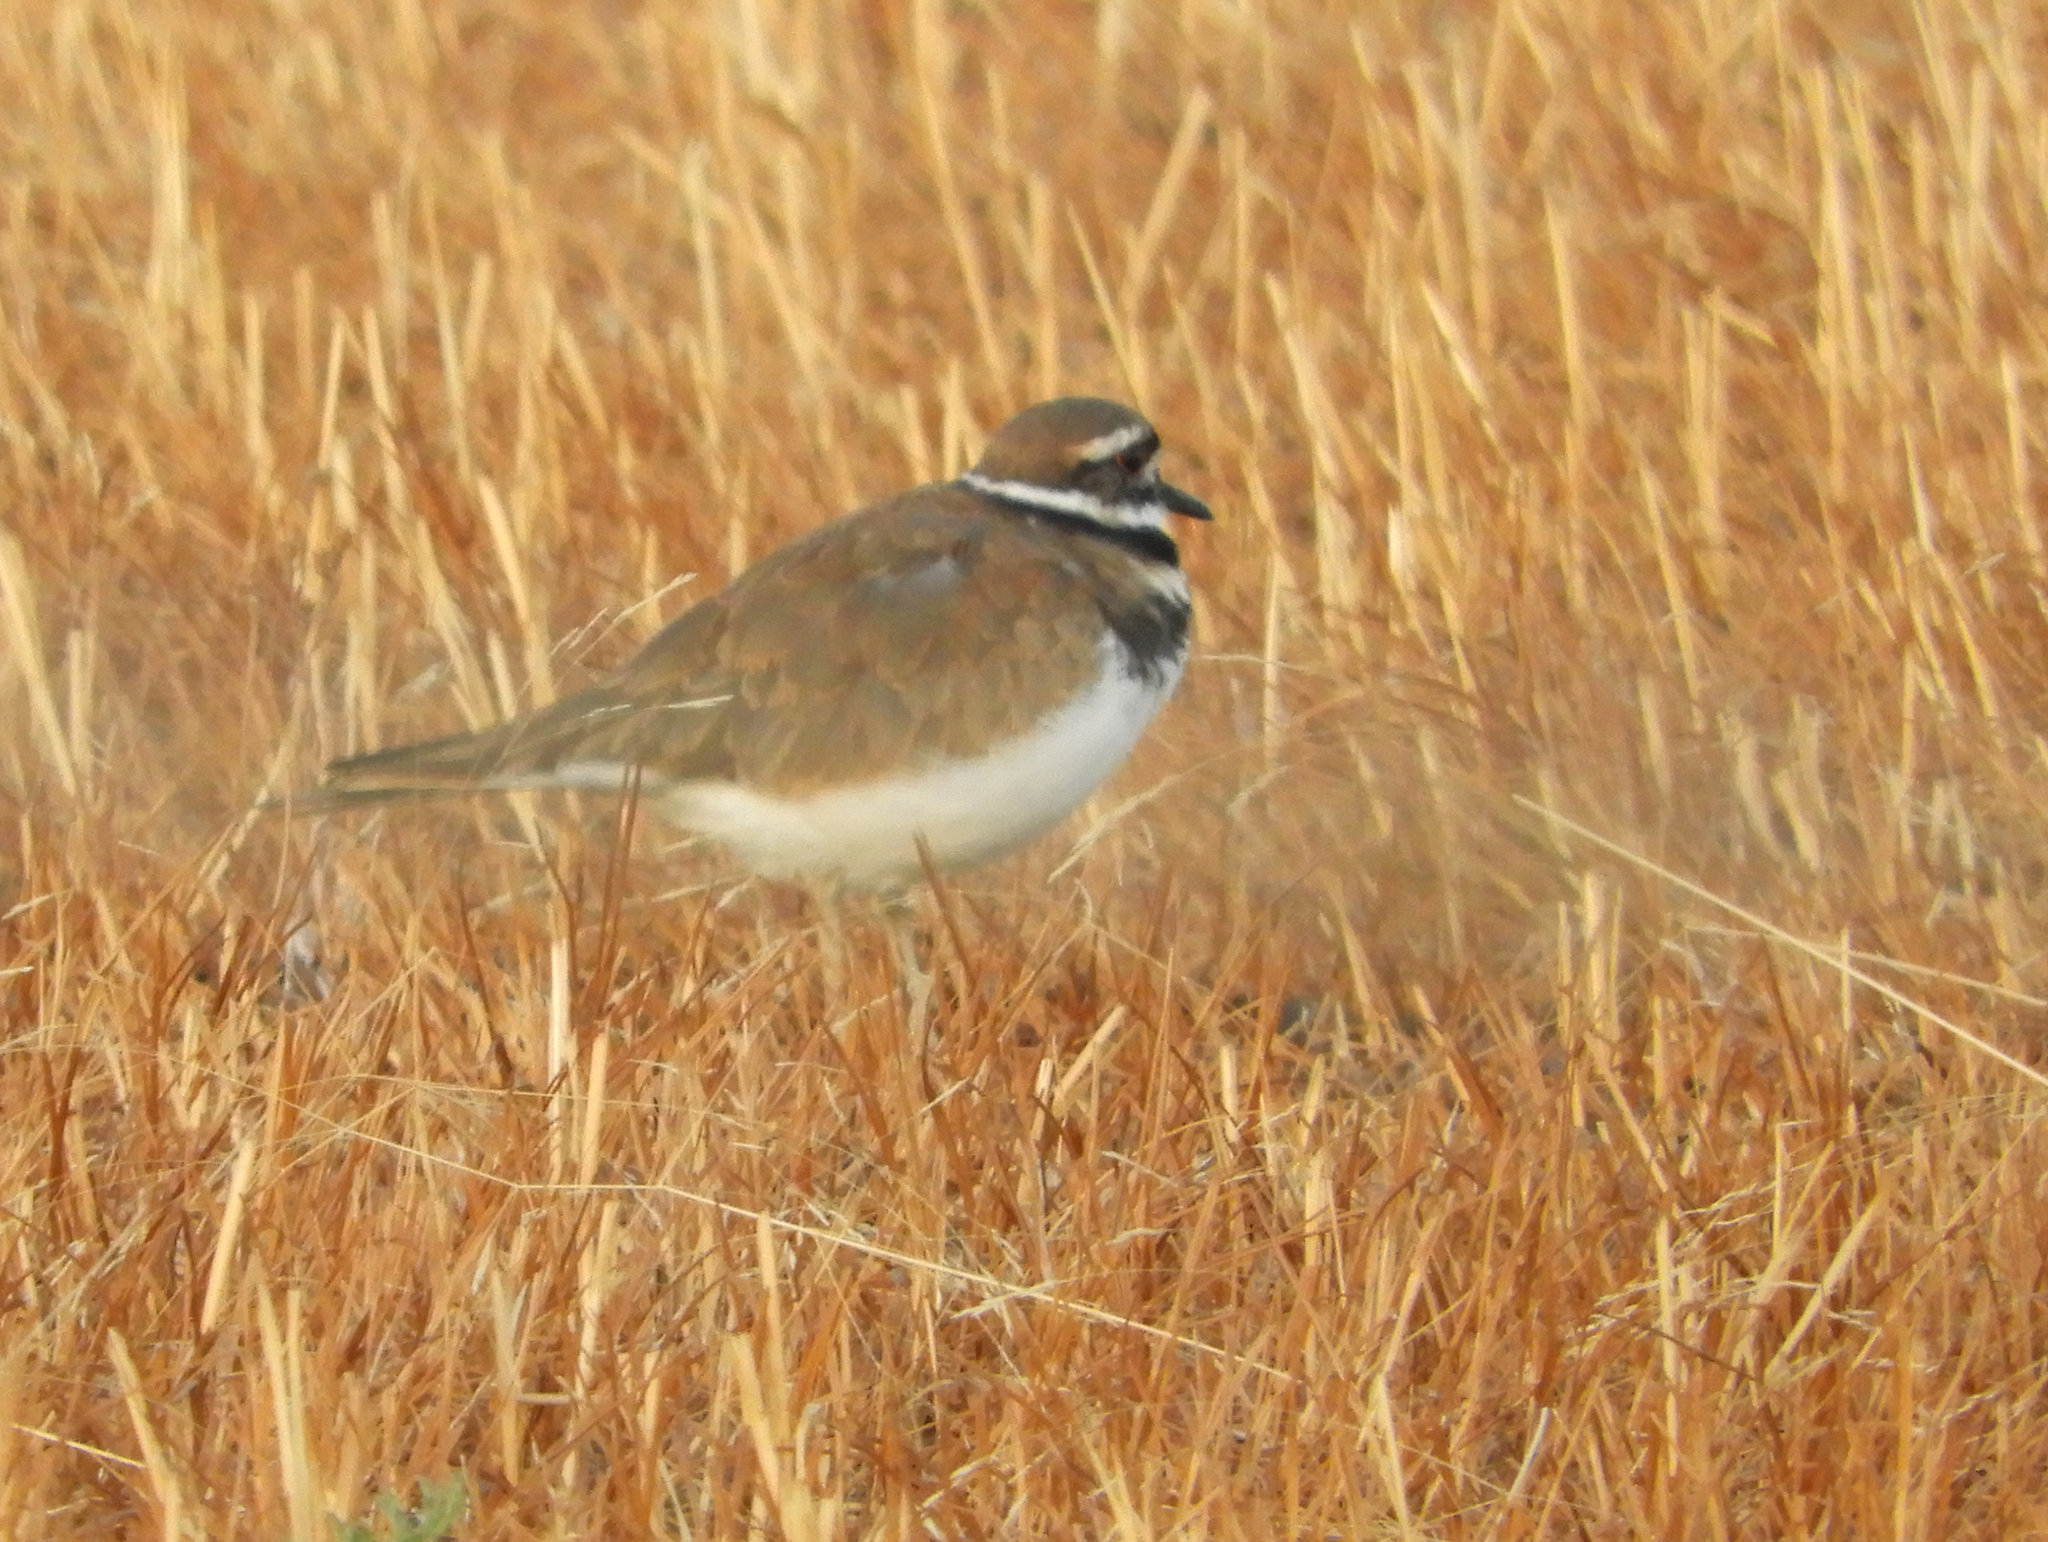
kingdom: Animalia
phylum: Chordata
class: Aves
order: Charadriiformes
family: Charadriidae
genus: Charadrius
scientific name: Charadrius vociferus
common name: Killdeer
